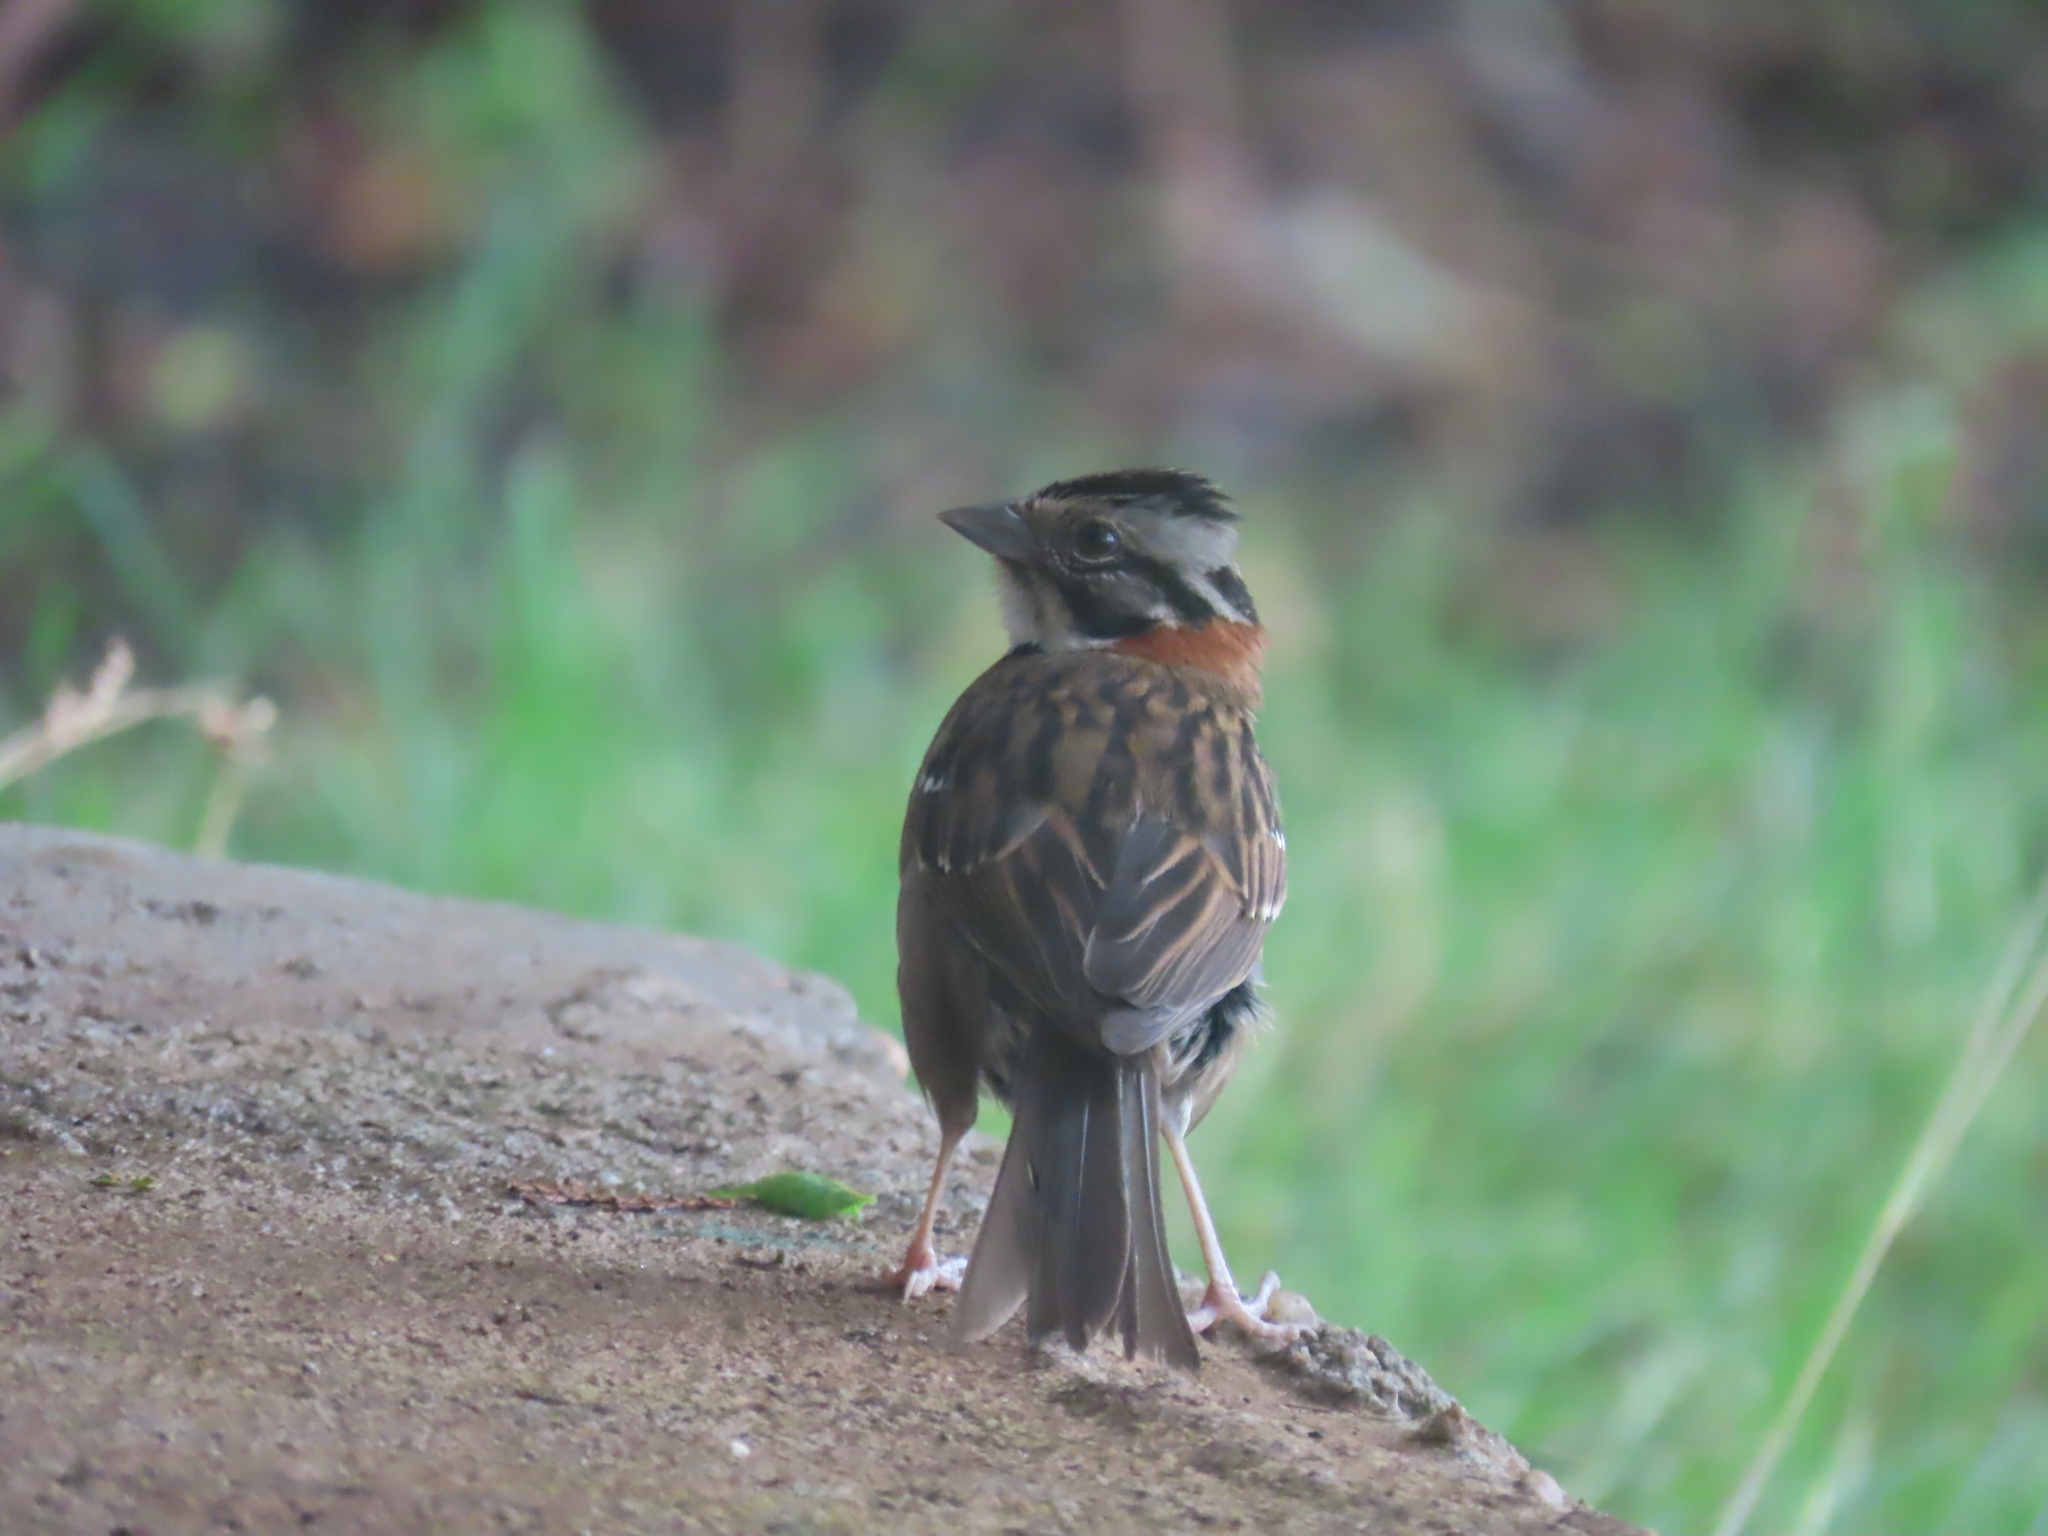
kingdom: Animalia
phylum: Chordata
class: Aves
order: Passeriformes
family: Passerellidae
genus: Zonotrichia
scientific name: Zonotrichia capensis
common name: Rufous-collared sparrow
